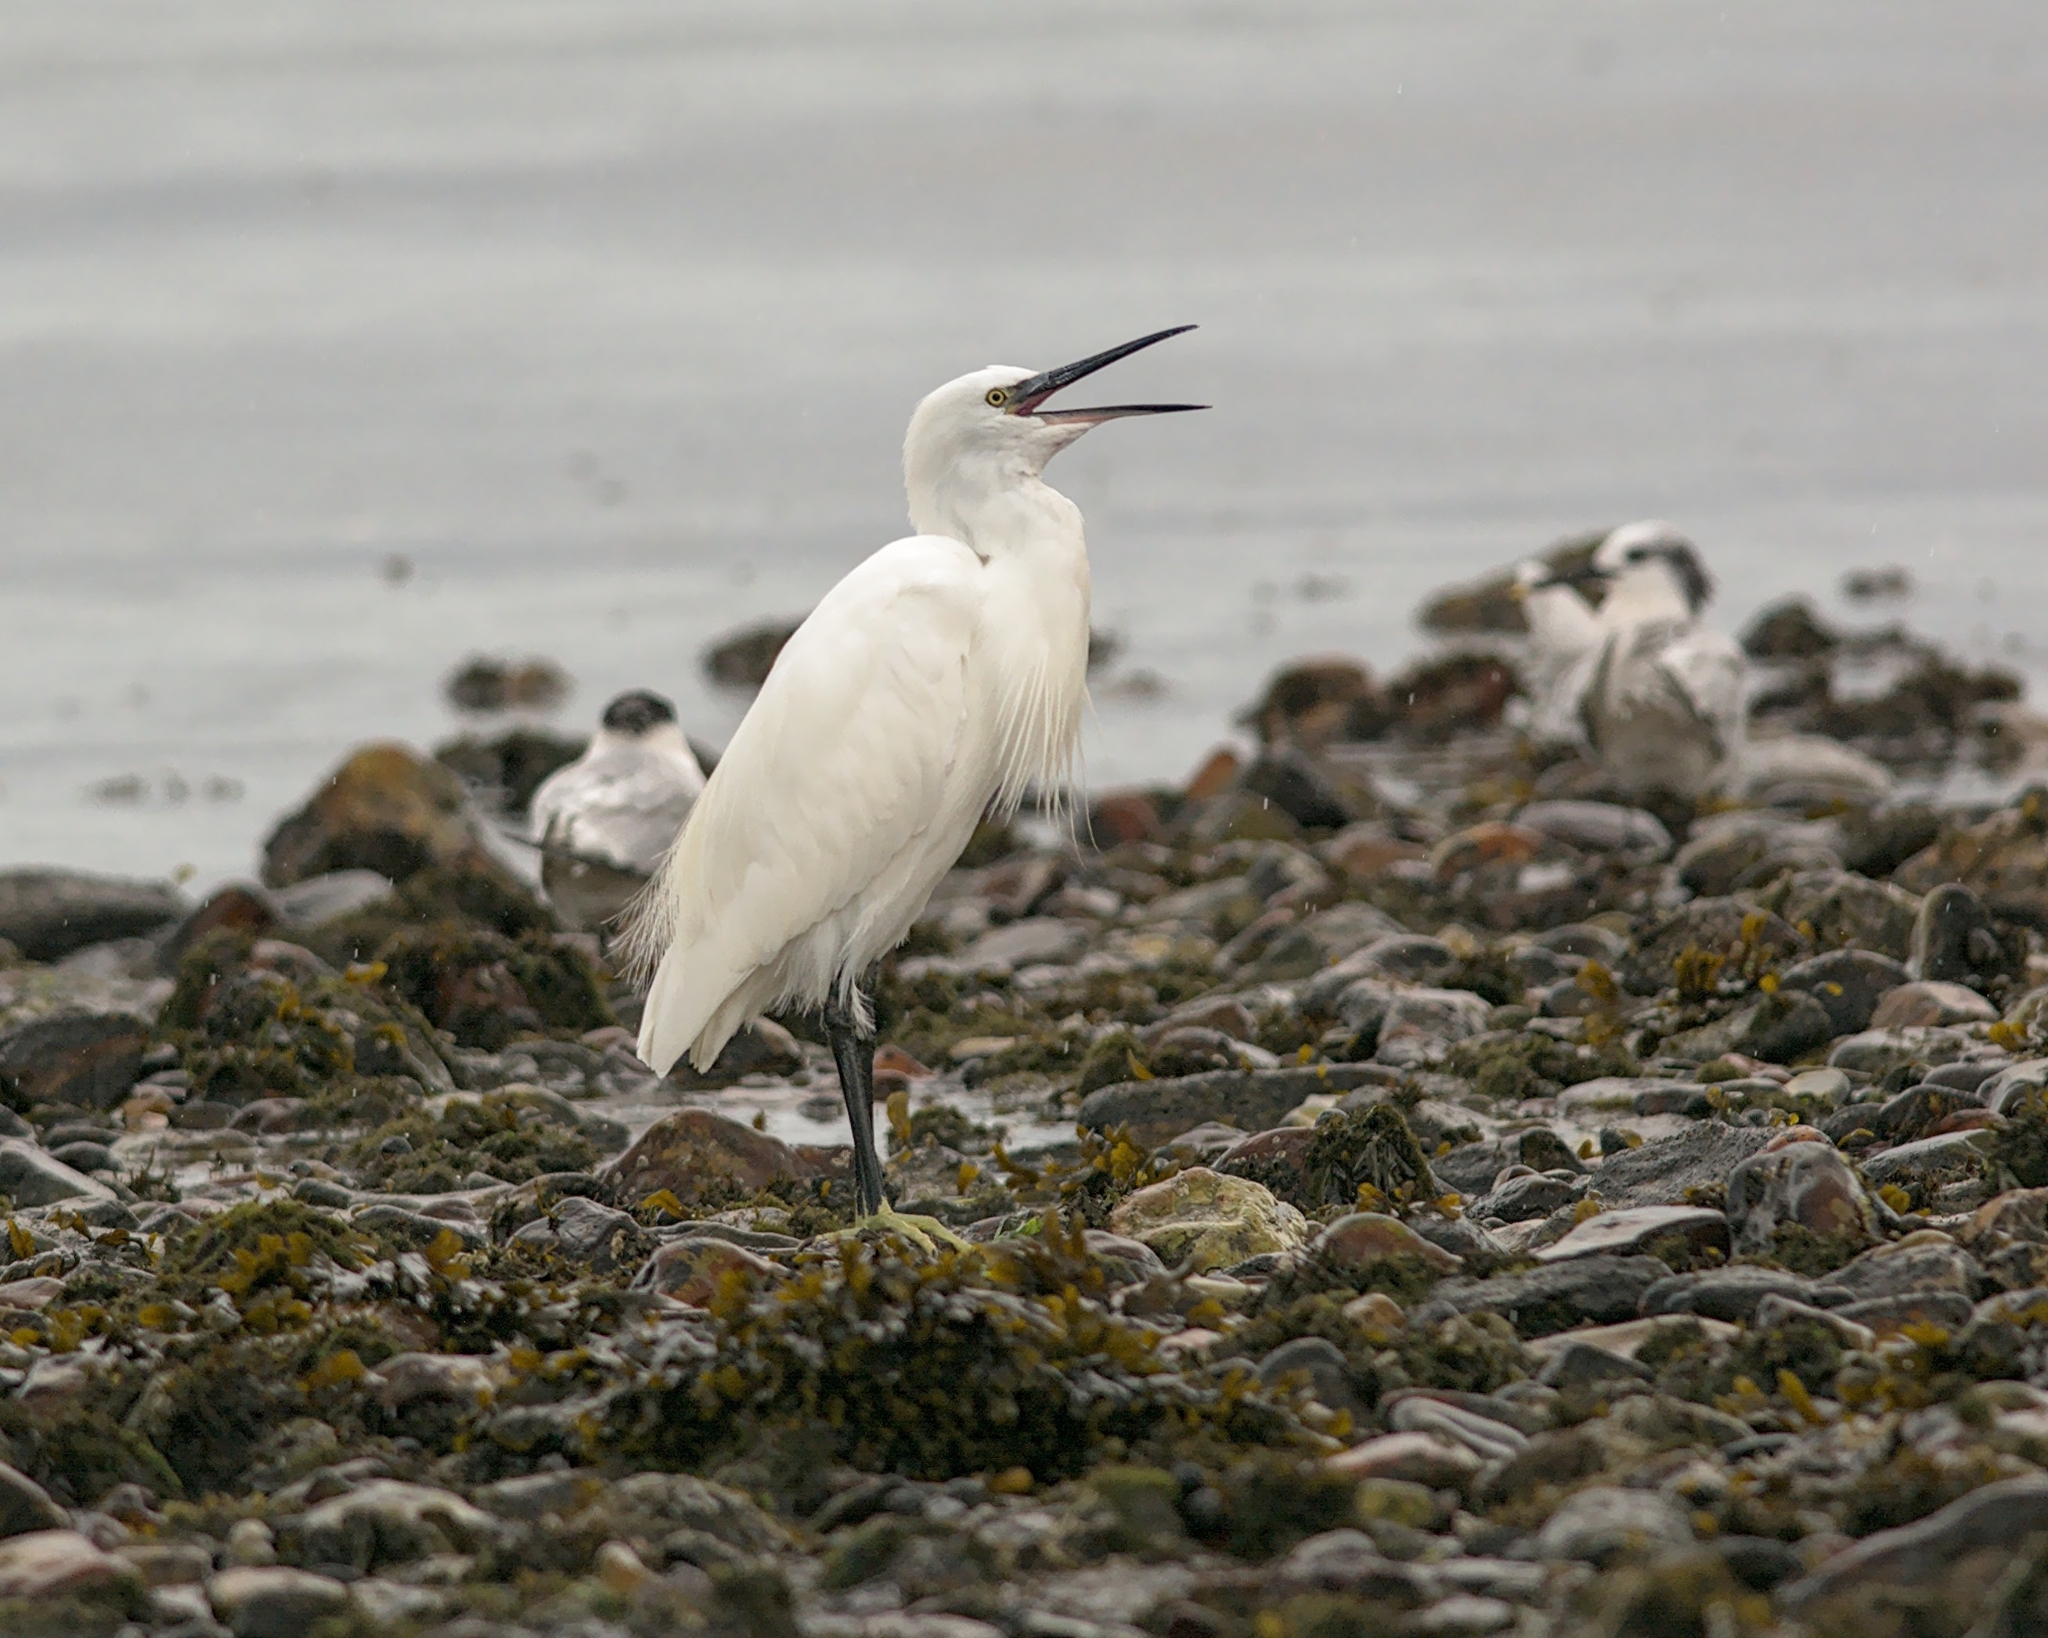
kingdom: Animalia
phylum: Chordata
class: Aves
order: Pelecaniformes
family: Ardeidae
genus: Egretta
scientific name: Egretta garzetta
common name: Little egret
